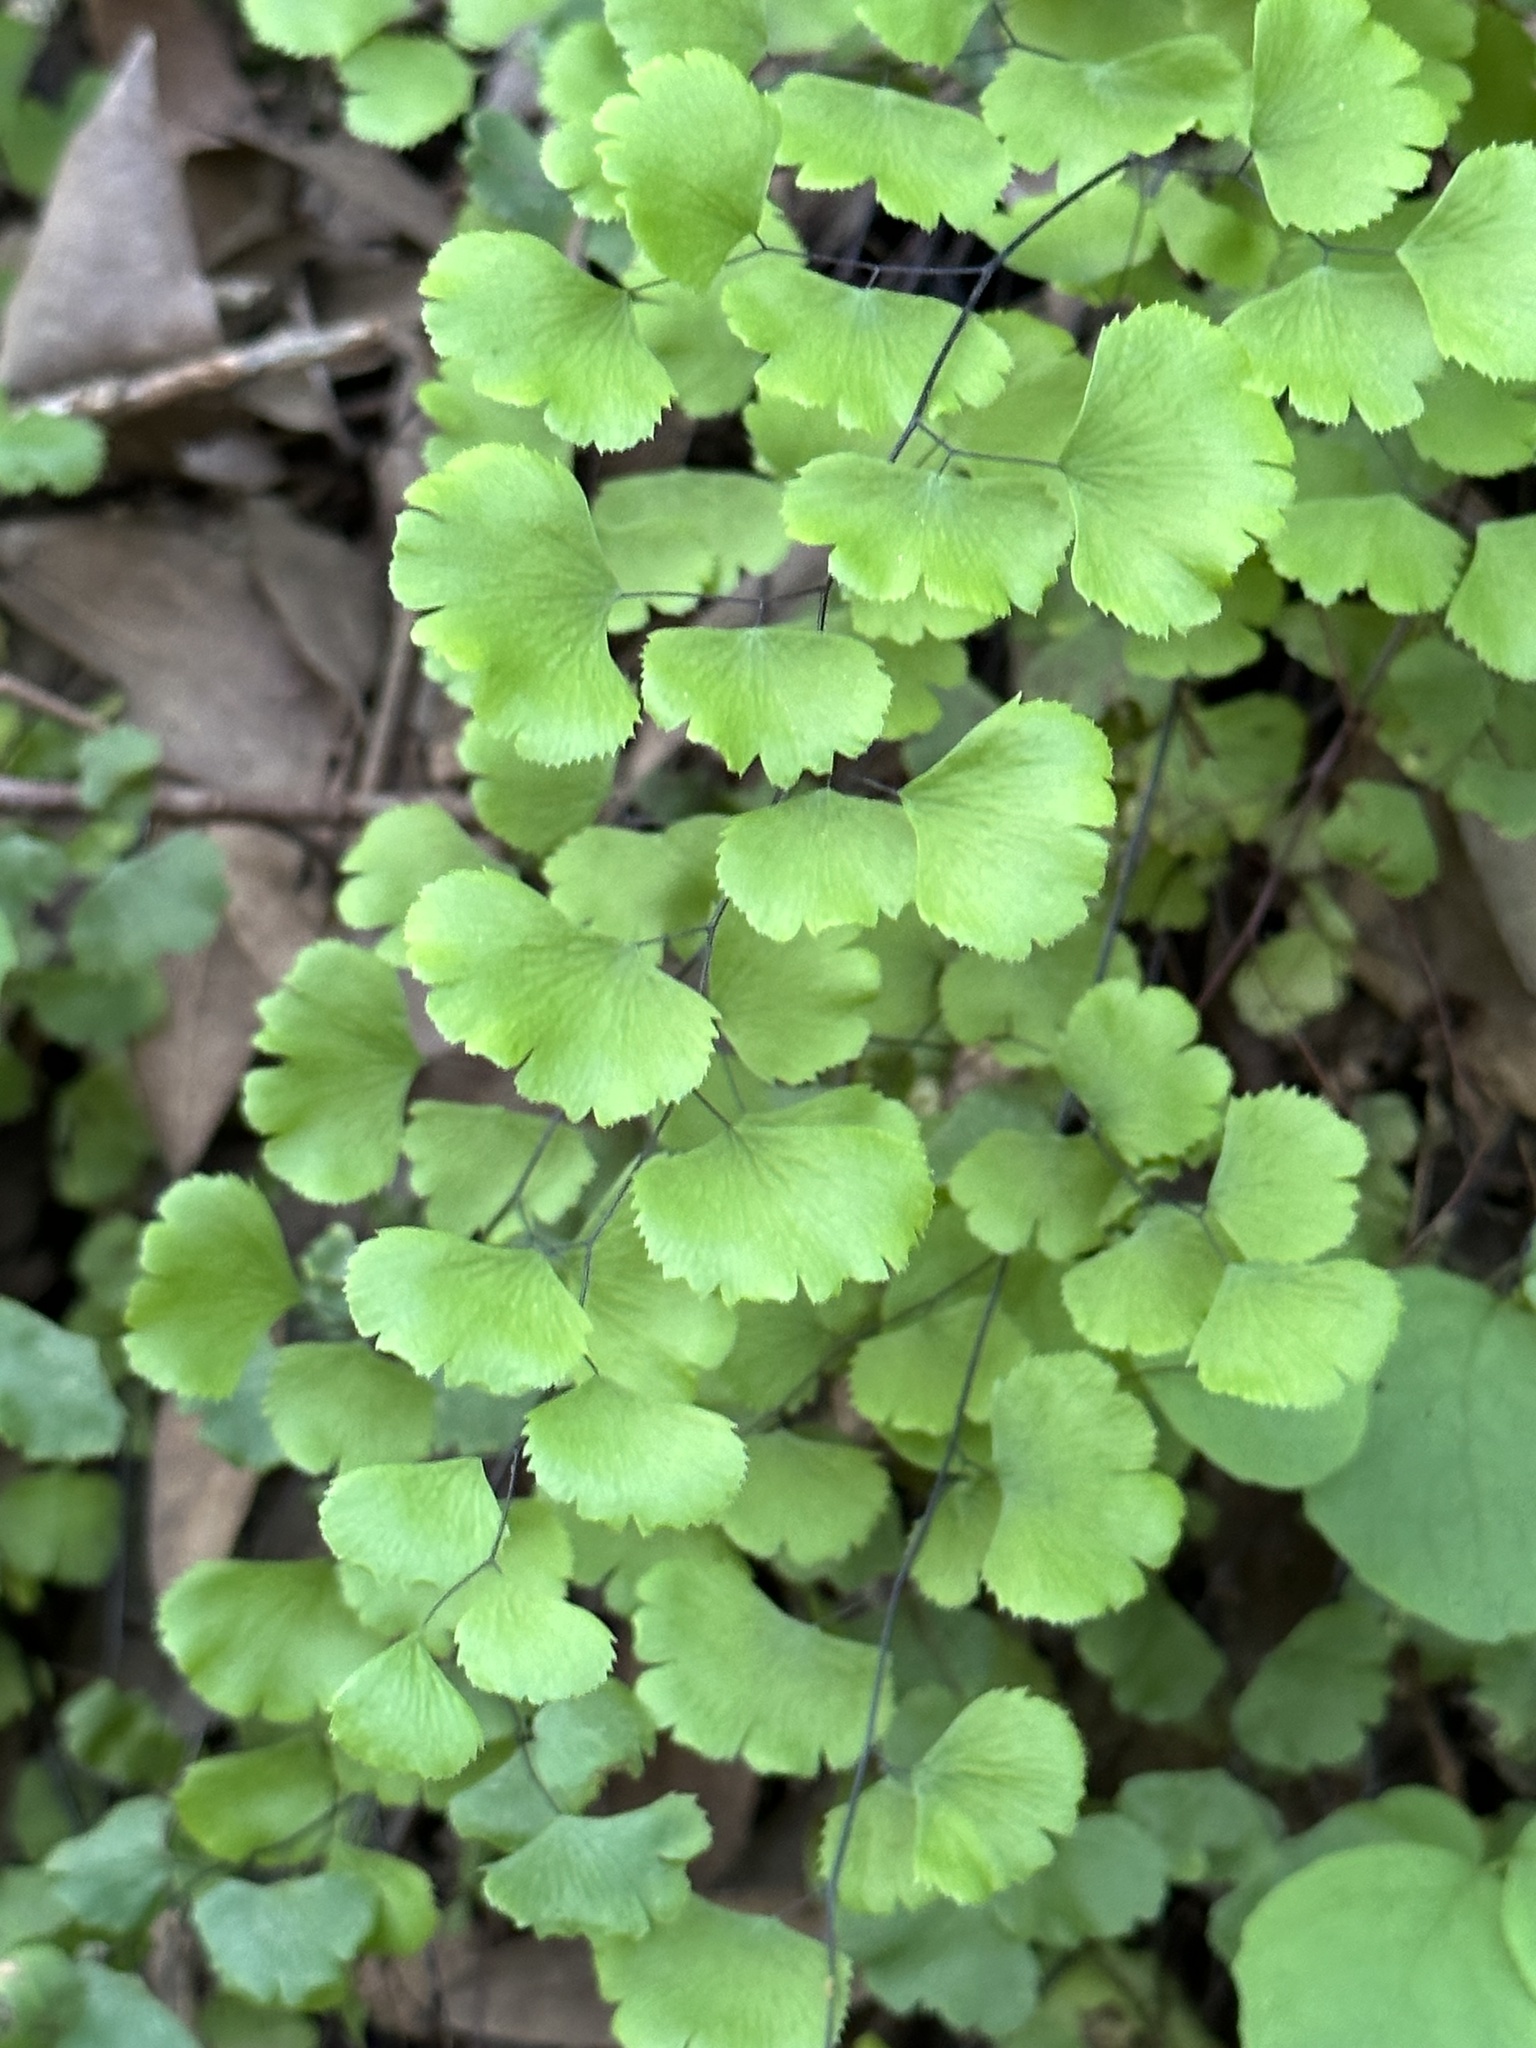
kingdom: Plantae
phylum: Tracheophyta
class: Polypodiopsida
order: Polypodiales
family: Pteridaceae
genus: Adiantum
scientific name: Adiantum jordanii
